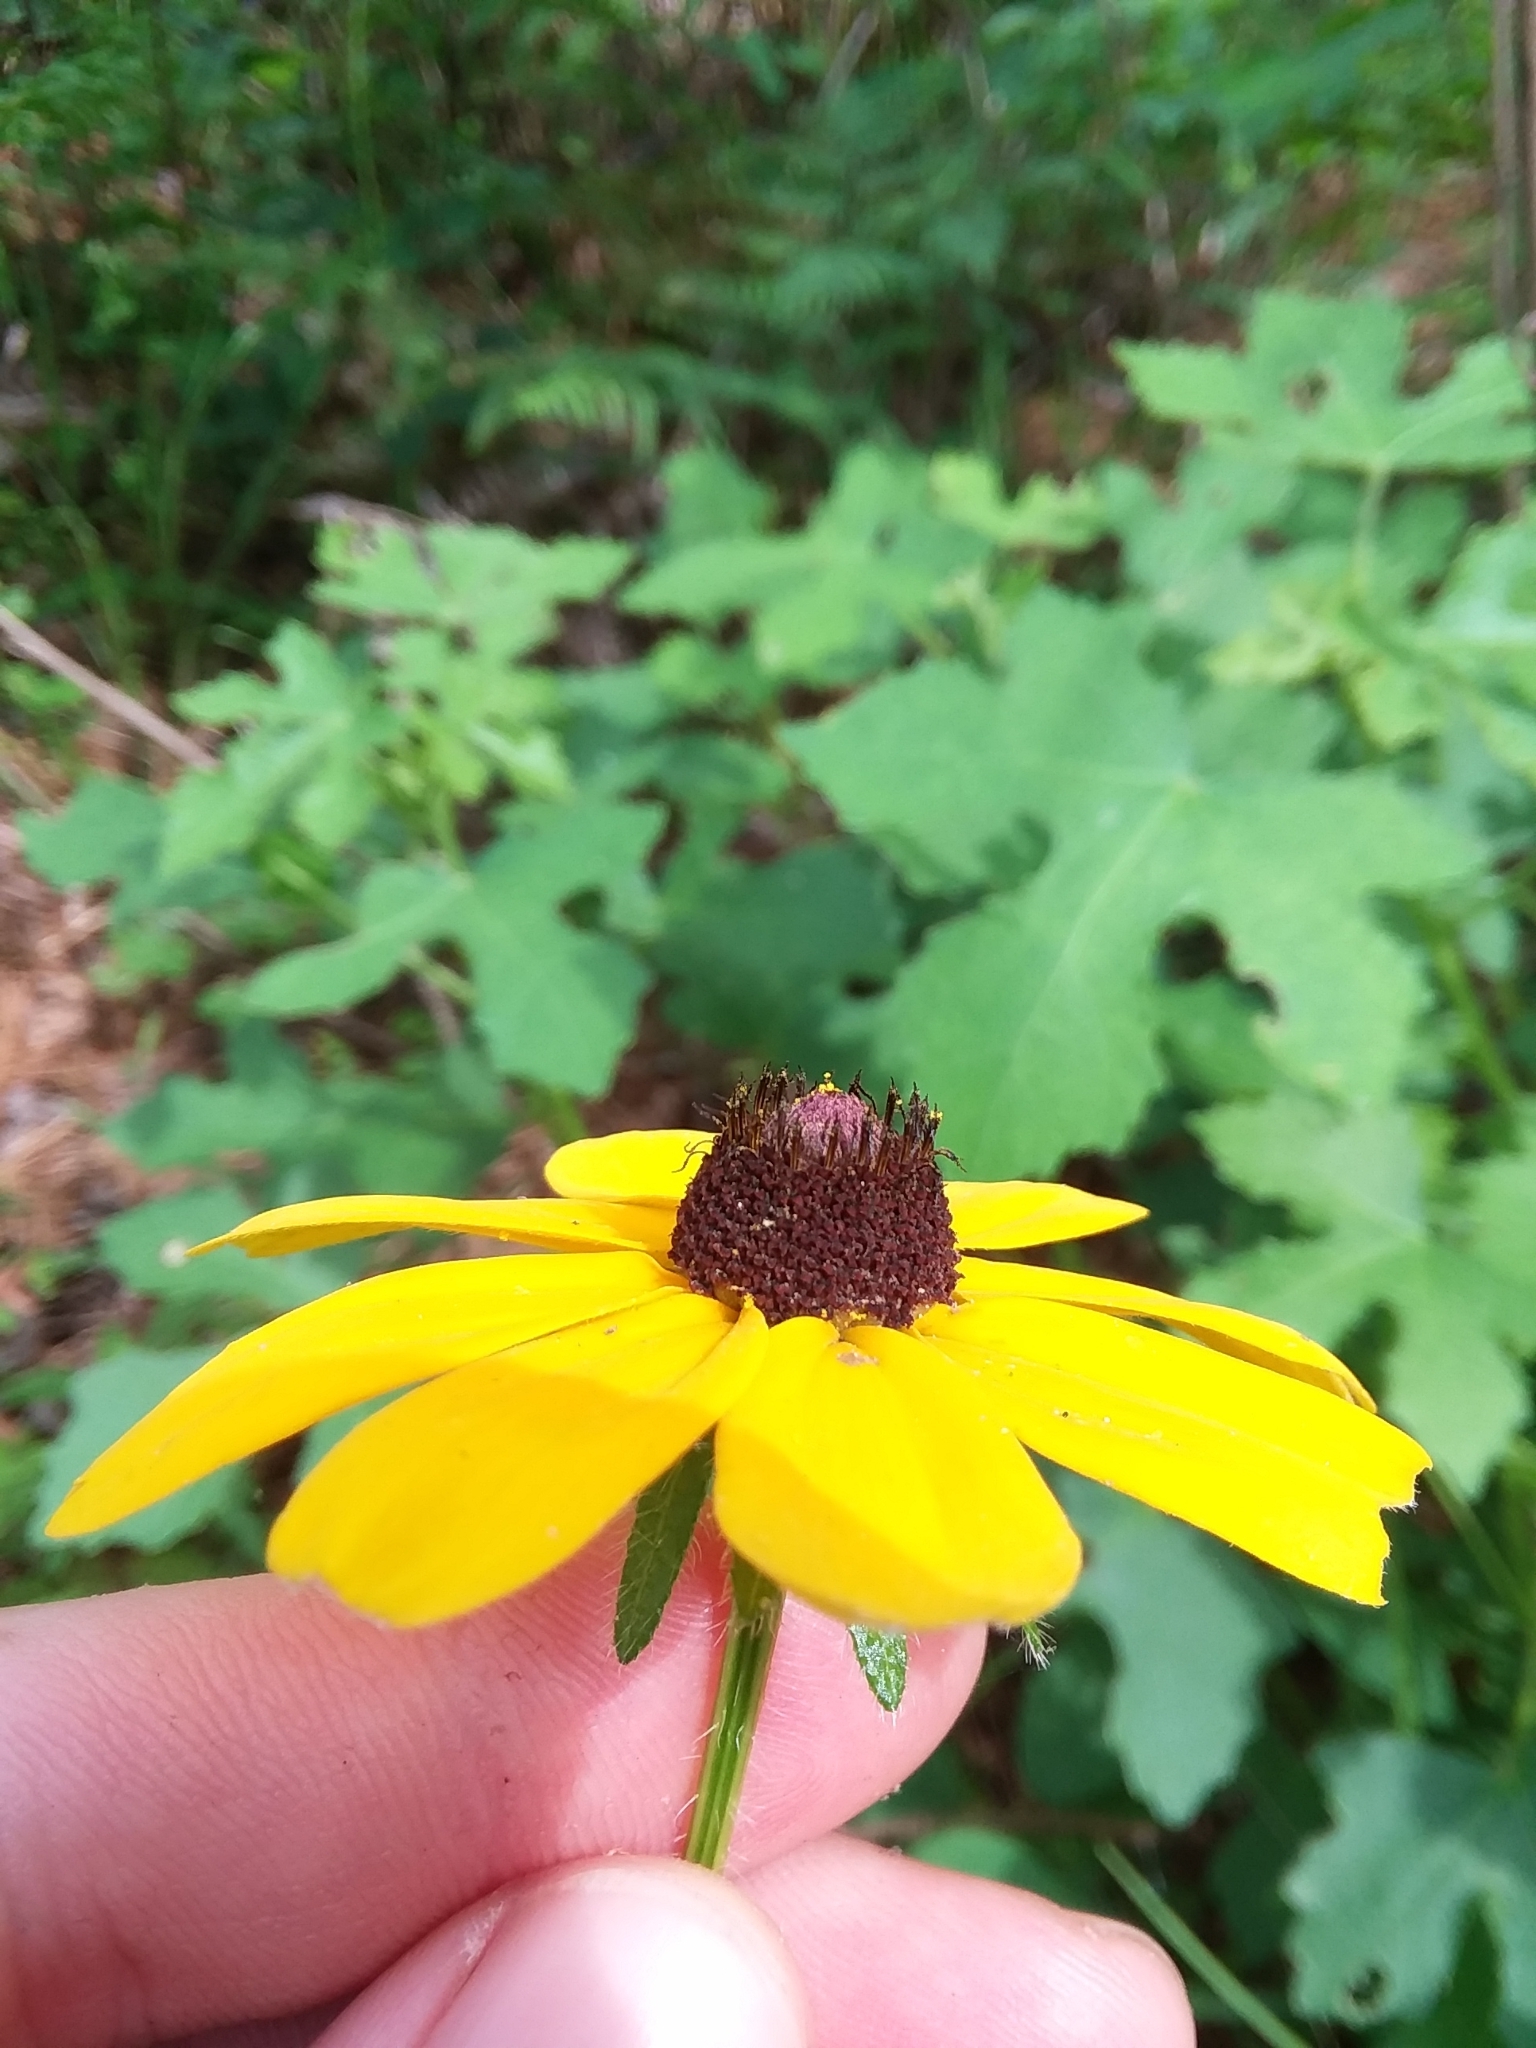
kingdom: Plantae
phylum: Tracheophyta
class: Magnoliopsida
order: Asterales
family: Asteraceae
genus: Rudbeckia
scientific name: Rudbeckia hirta
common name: Black-eyed-susan
